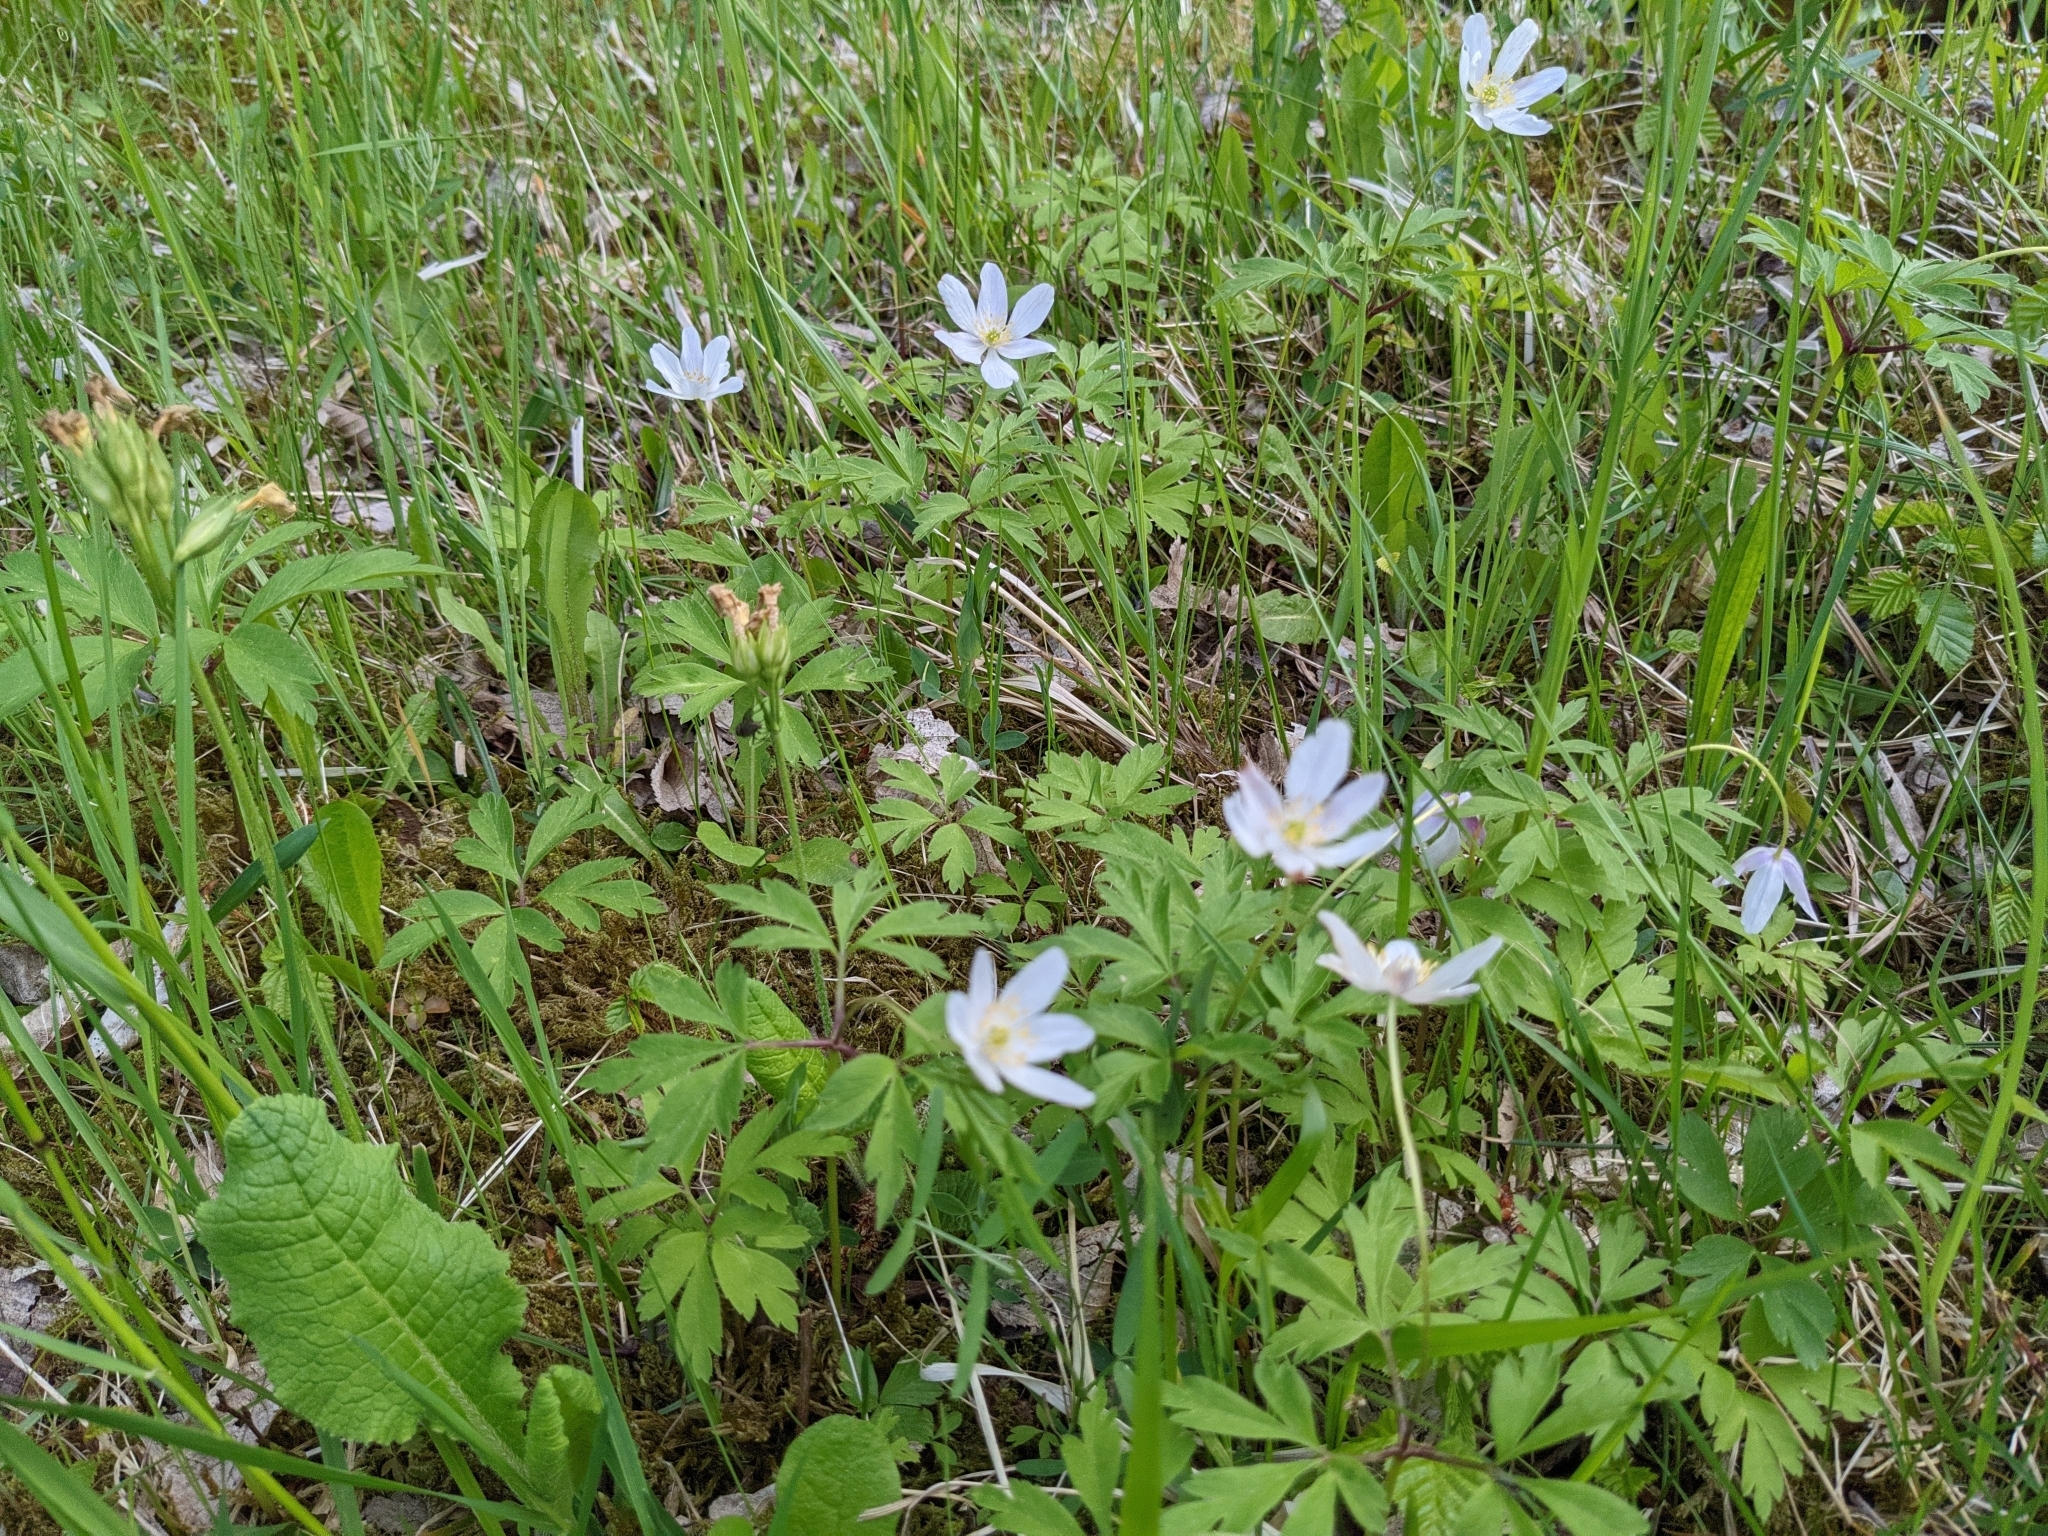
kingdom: Plantae
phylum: Tracheophyta
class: Magnoliopsida
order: Ranunculales
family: Ranunculaceae
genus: Anemone
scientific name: Anemone nemorosa
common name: Wood anemone
